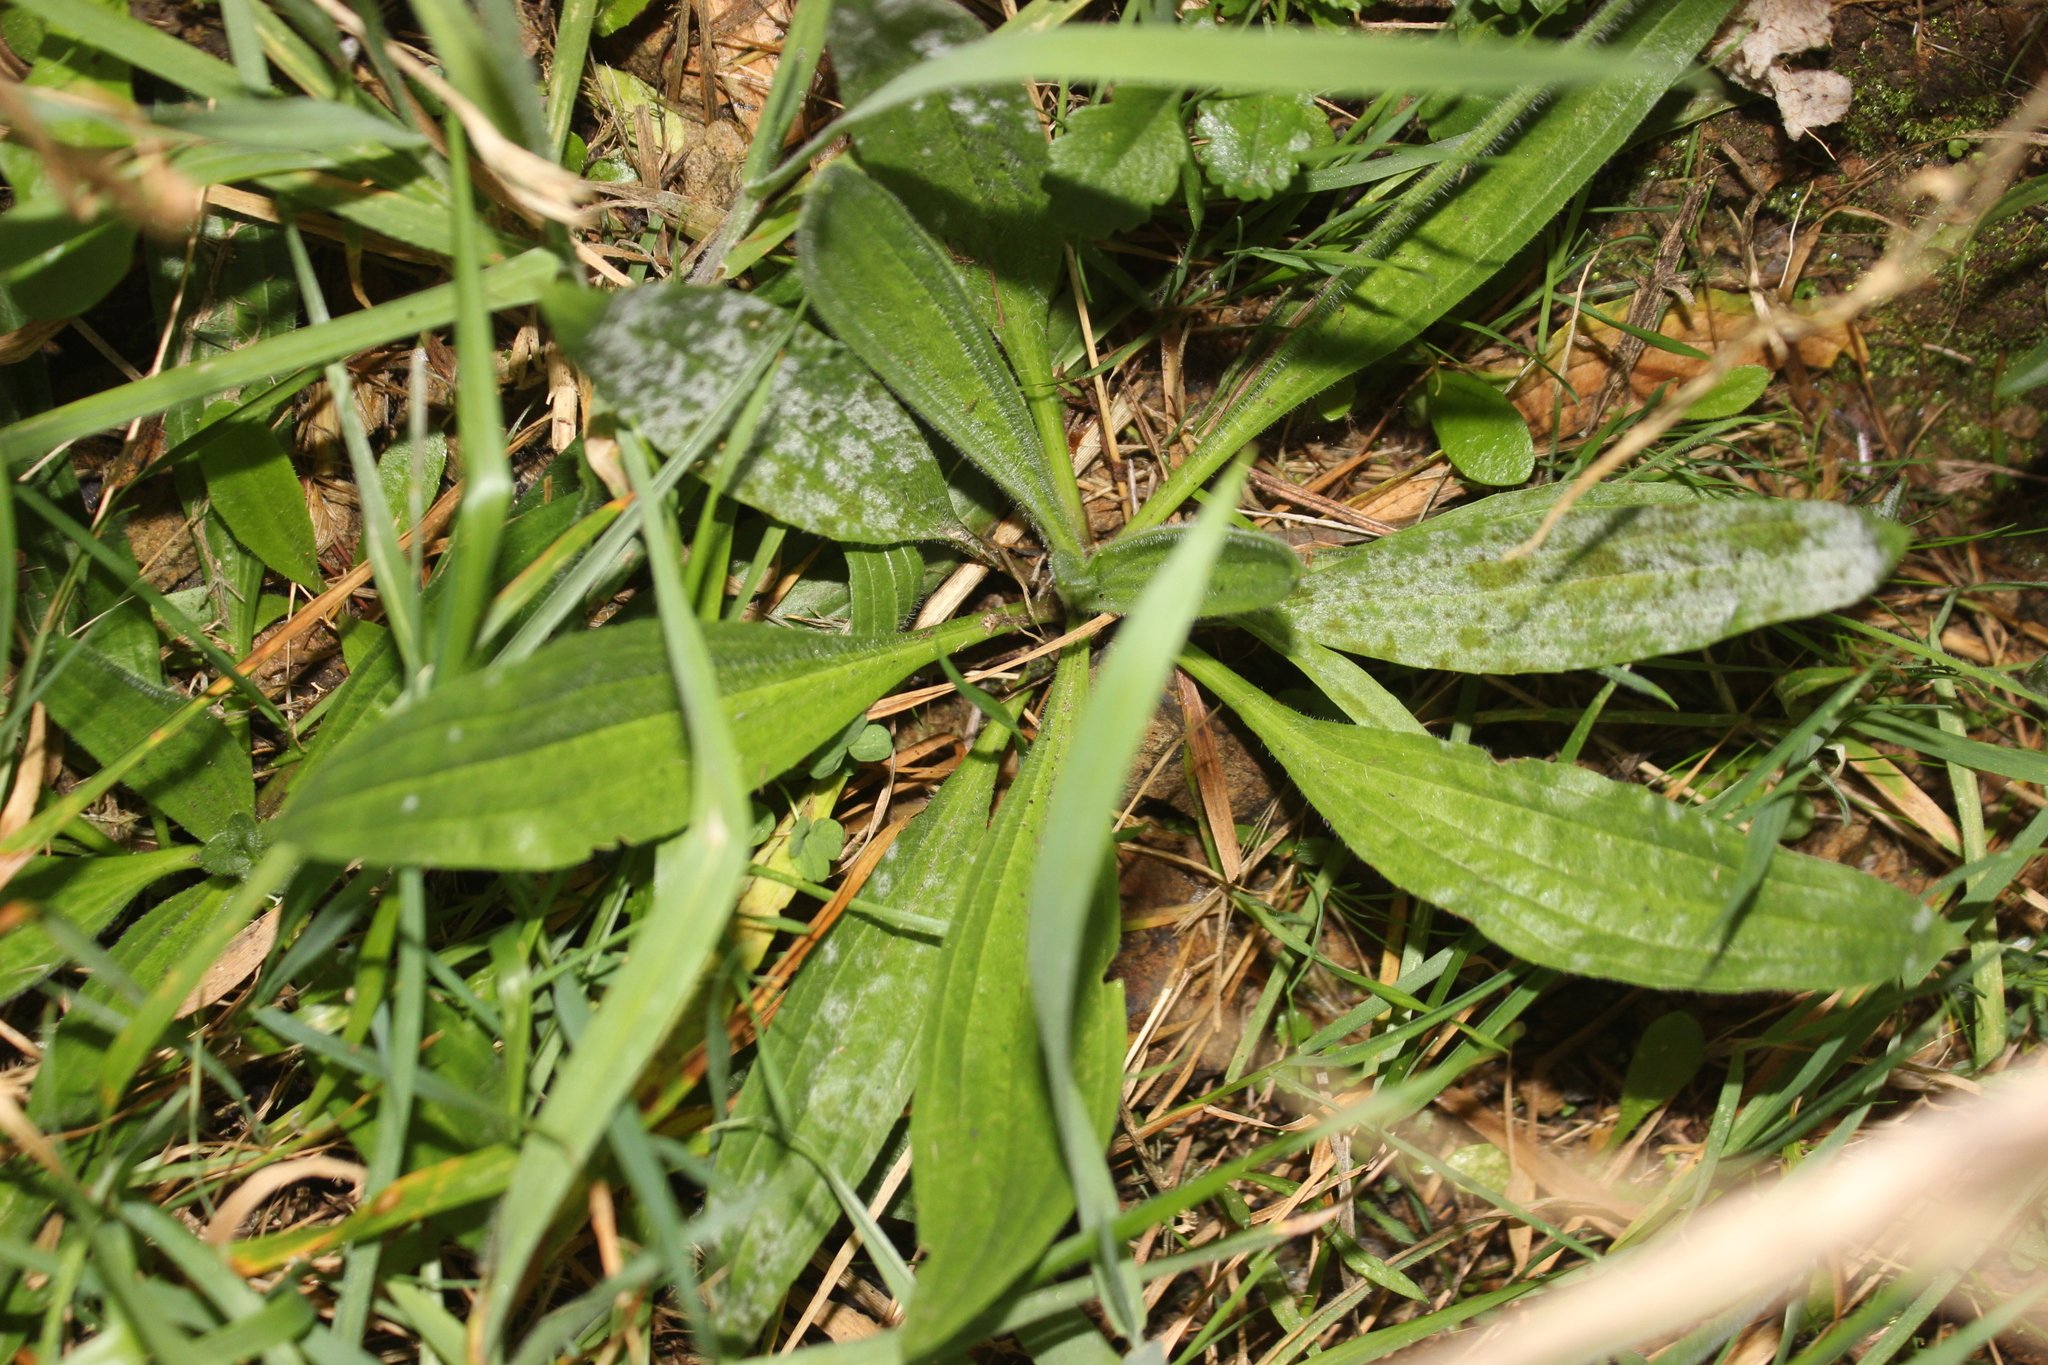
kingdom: Plantae
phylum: Tracheophyta
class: Magnoliopsida
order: Lamiales
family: Plantaginaceae
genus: Plantago
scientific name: Plantago lanceolata
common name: Ribwort plantain
